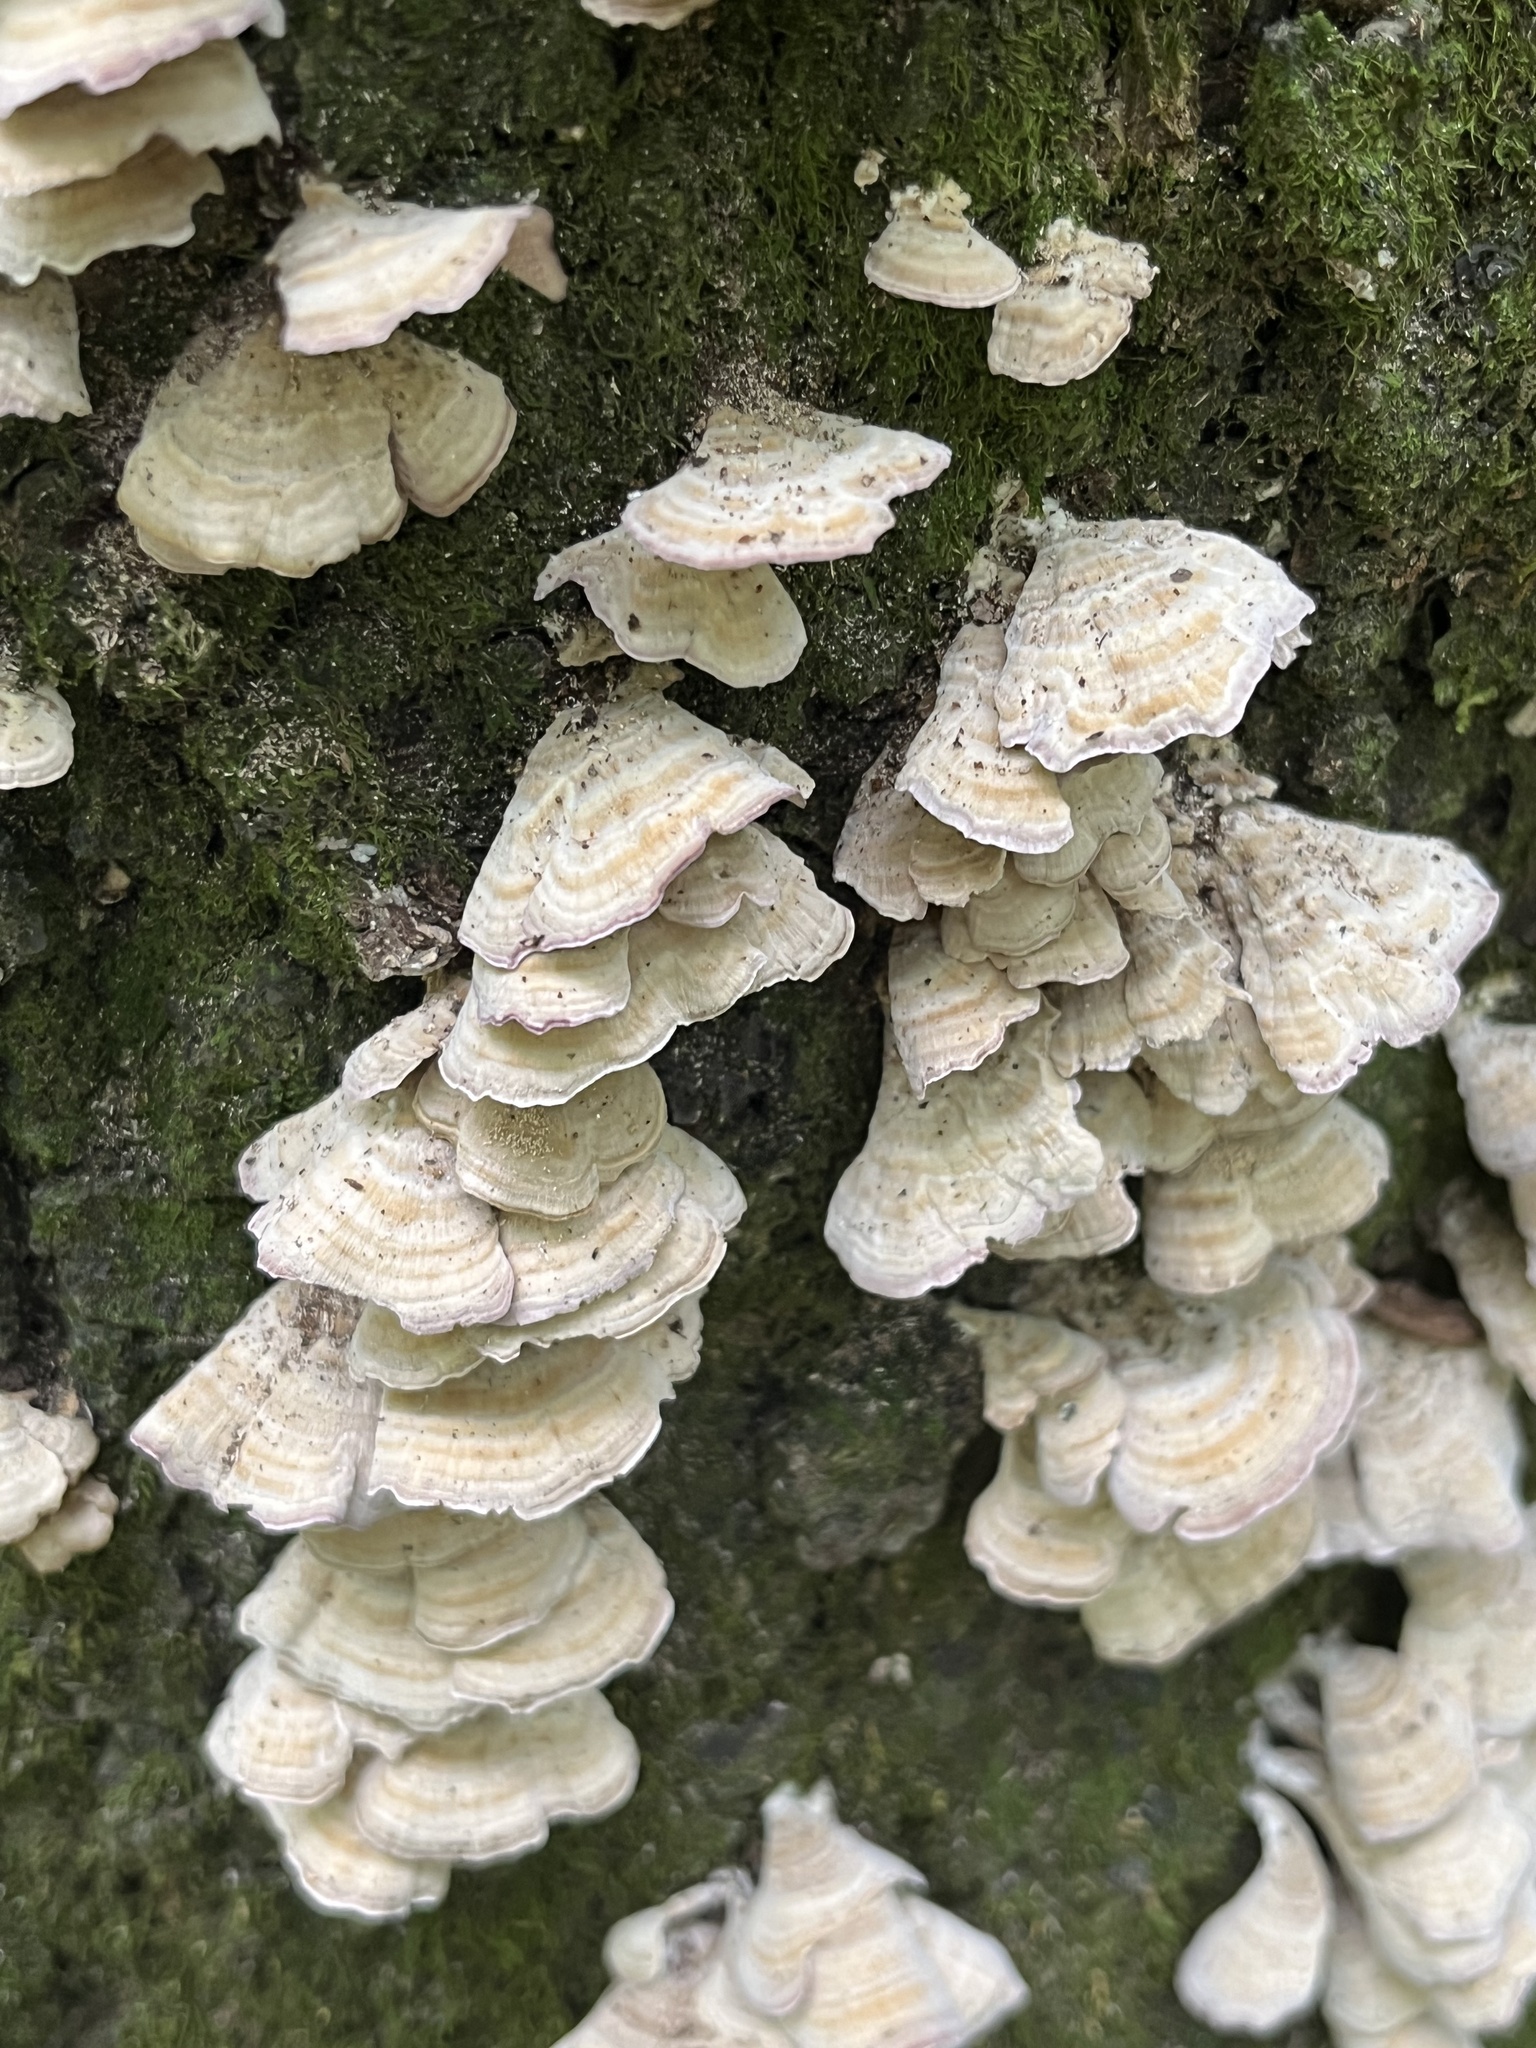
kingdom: Fungi
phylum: Basidiomycota
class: Agaricomycetes
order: Hymenochaetales
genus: Trichaptum
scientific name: Trichaptum biforme
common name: Violet-toothed polypore
